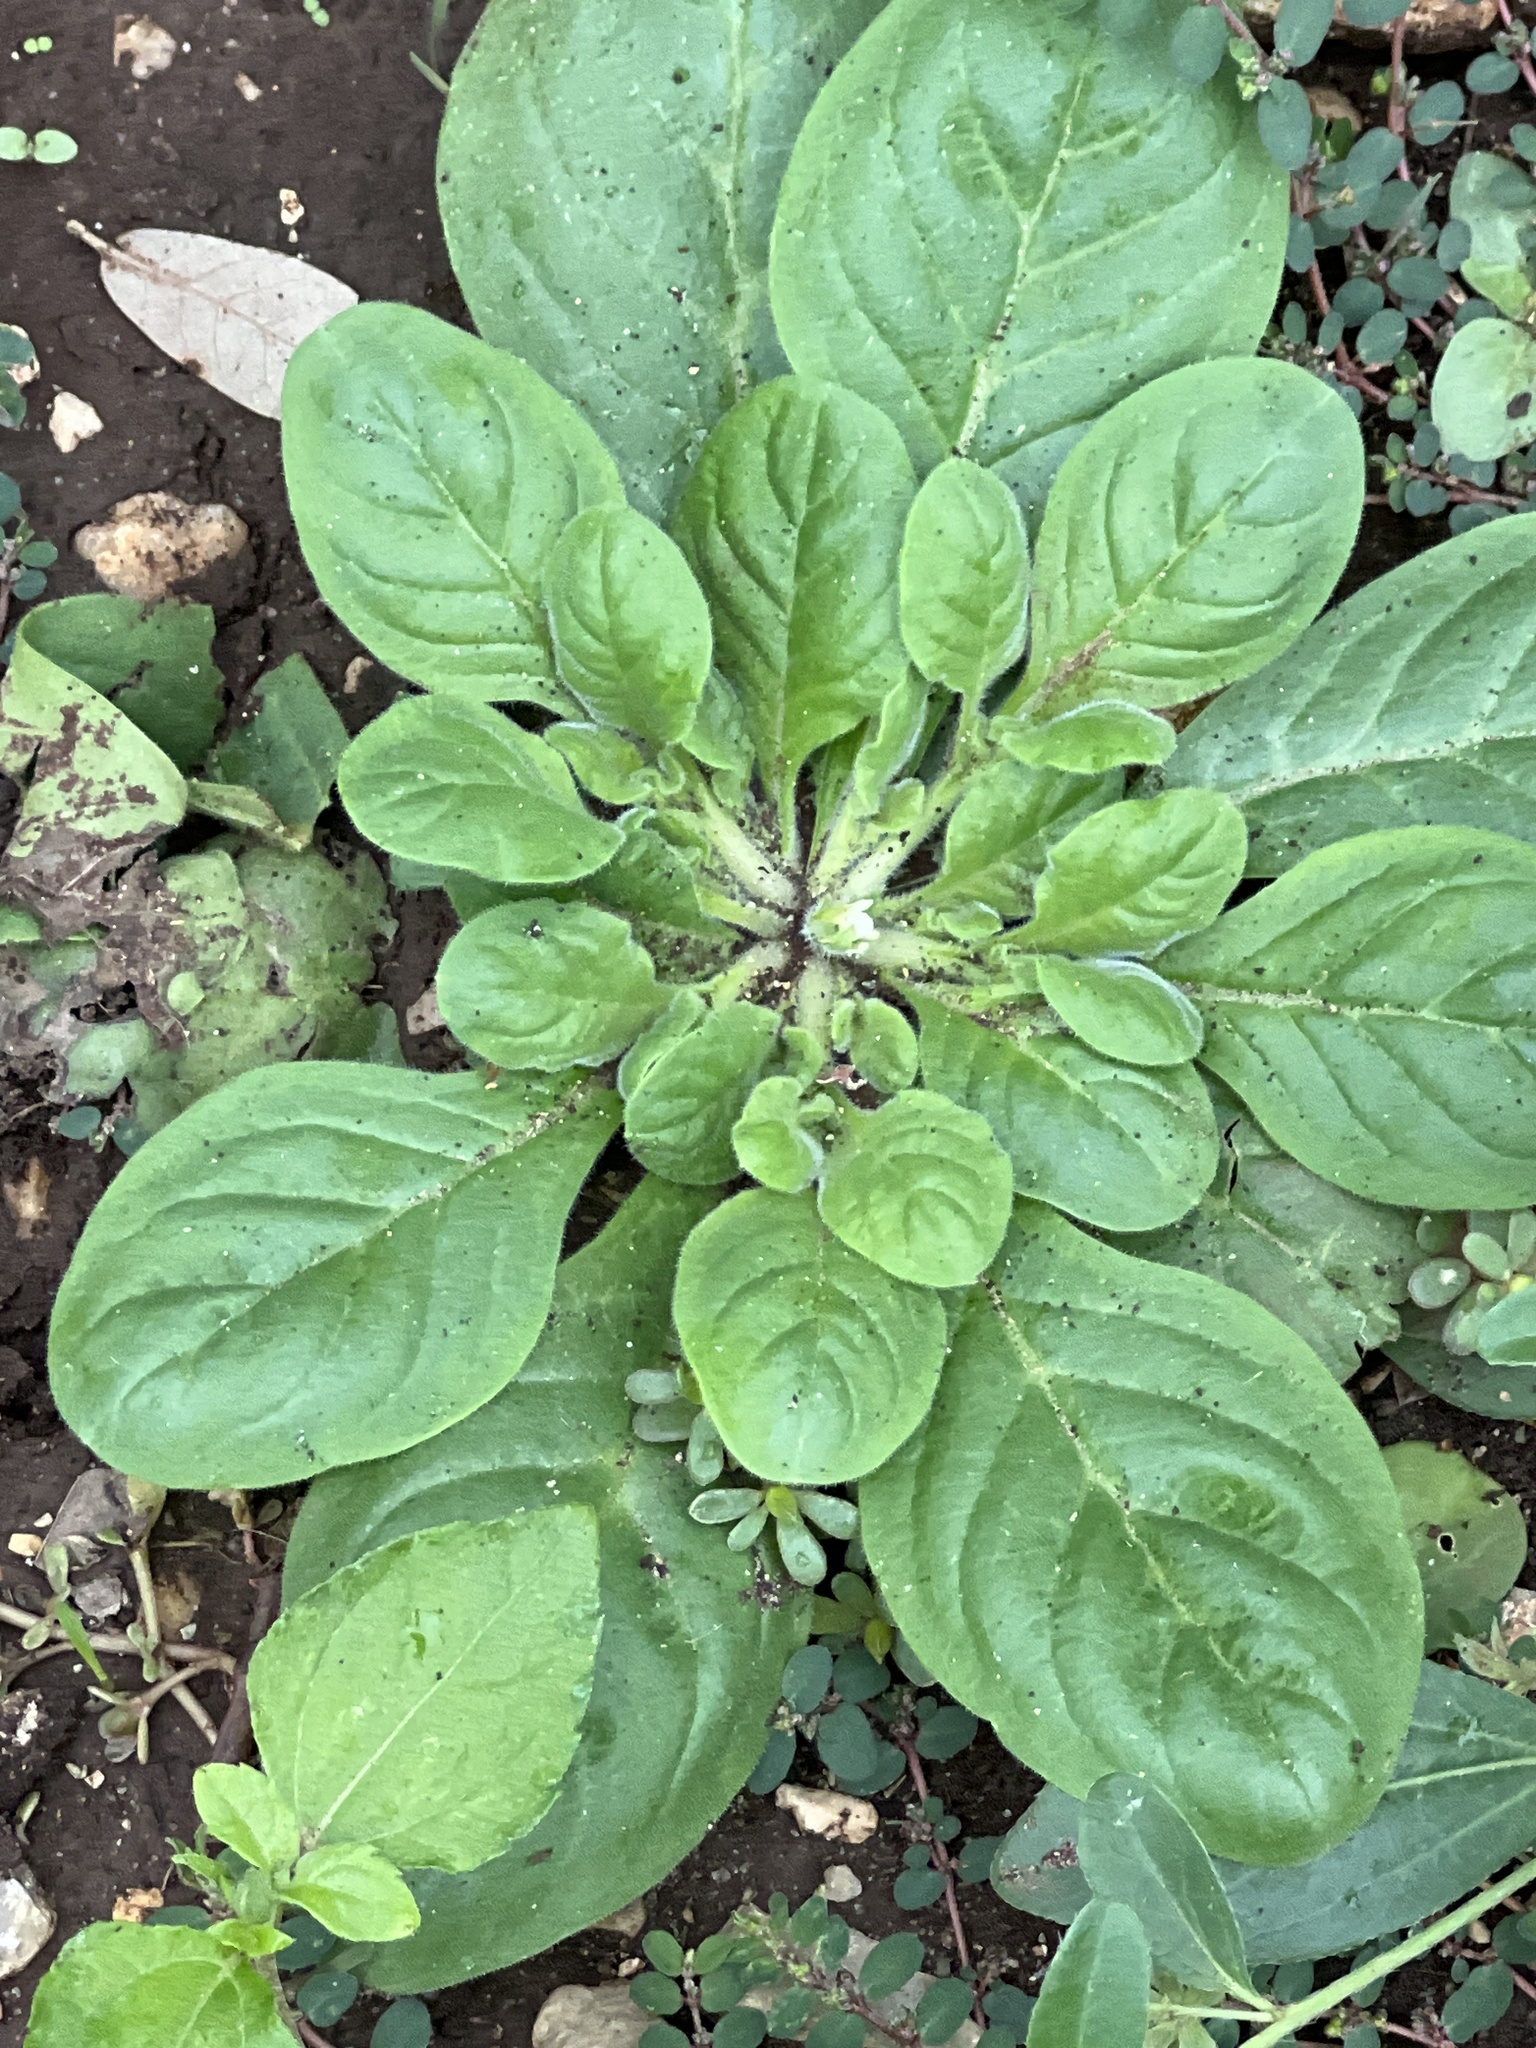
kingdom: Plantae
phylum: Tracheophyta
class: Magnoliopsida
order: Boraginales
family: Namaceae
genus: Nama
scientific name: Nama jamaicensis
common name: Jamaicanweed
